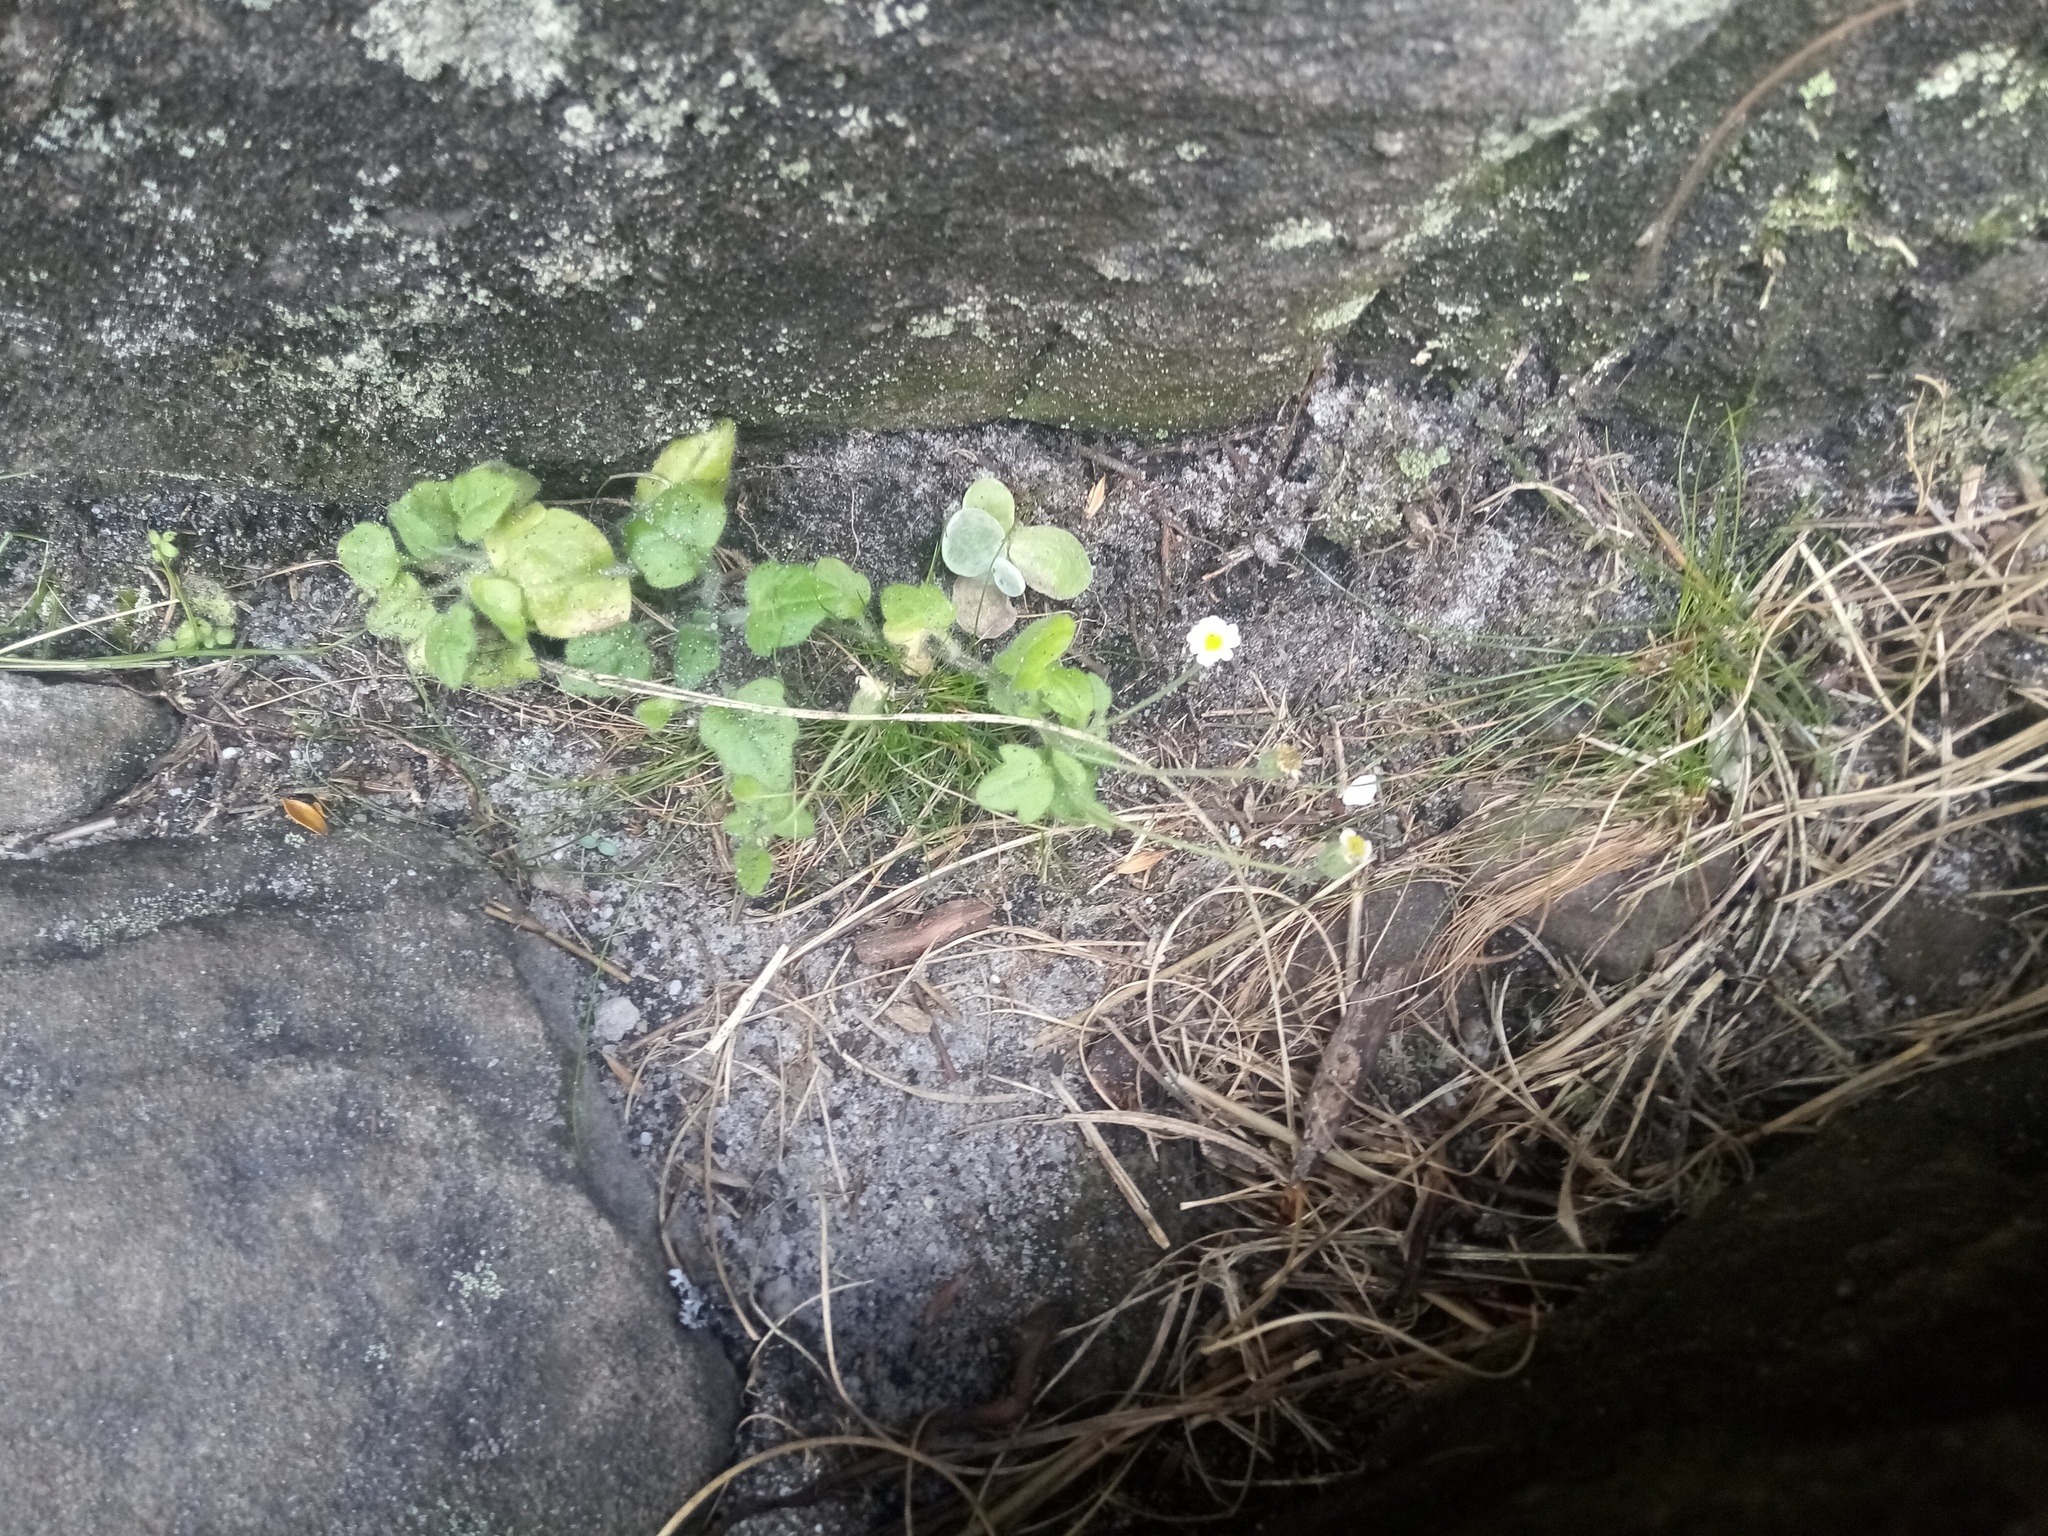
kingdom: Plantae
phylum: Tracheophyta
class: Magnoliopsida
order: Asterales
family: Asteraceae
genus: Felicia
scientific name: Felicia cymbalariae
